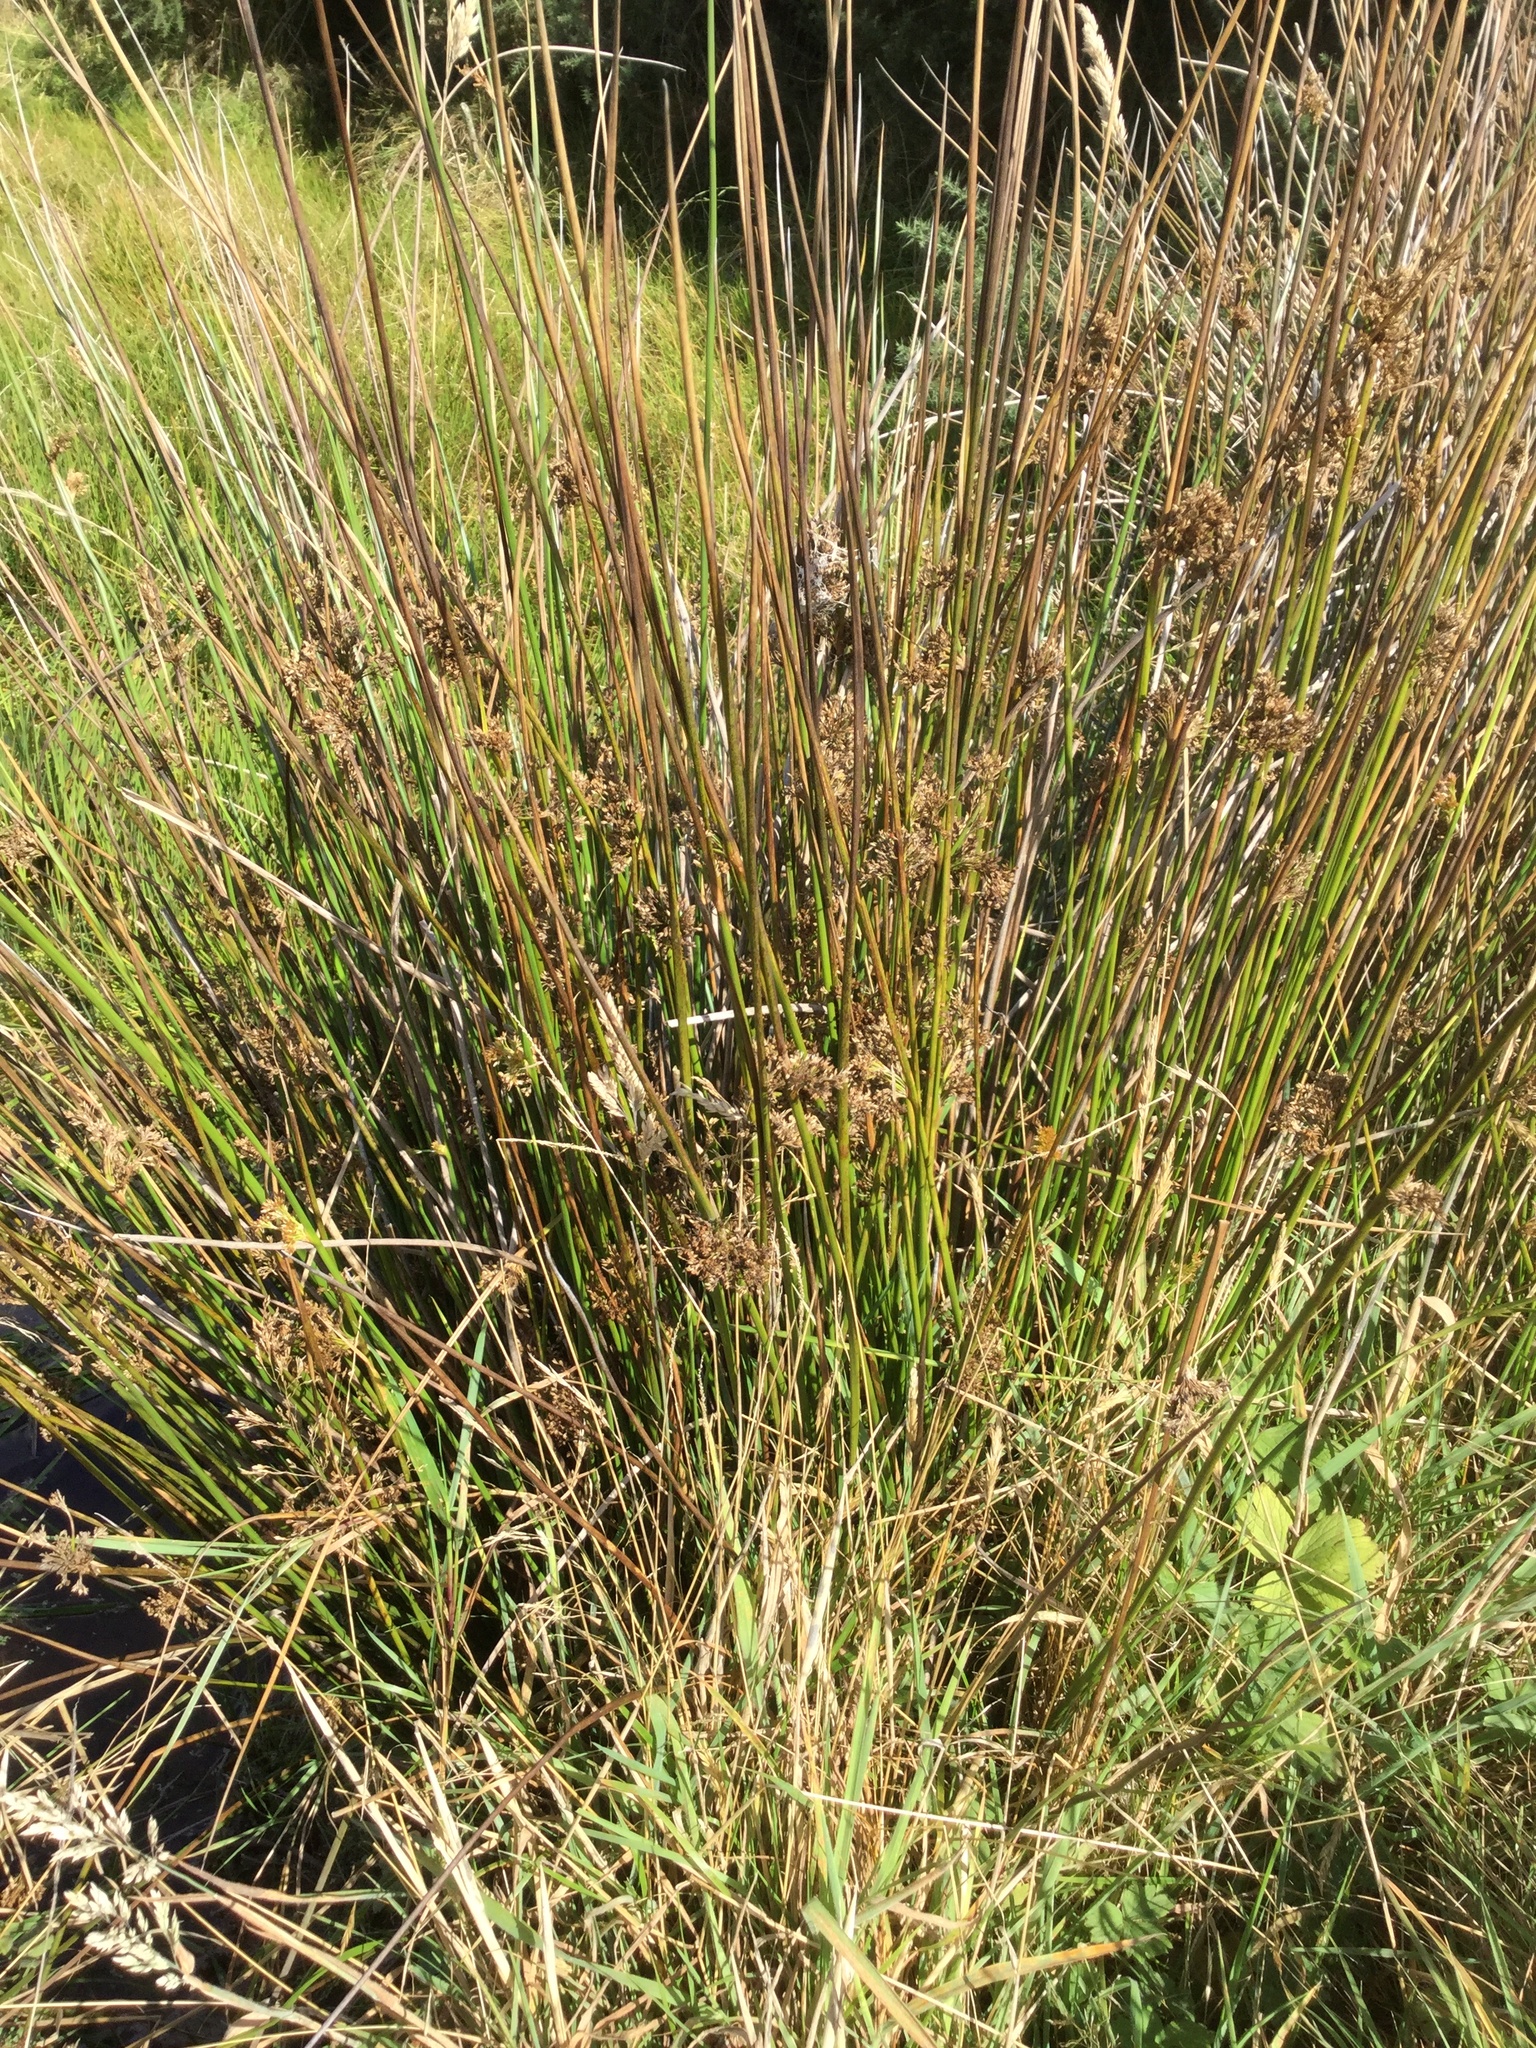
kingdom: Plantae
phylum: Tracheophyta
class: Liliopsida
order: Poales
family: Juncaceae
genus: Juncus
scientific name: Juncus effusus
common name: Soft rush
